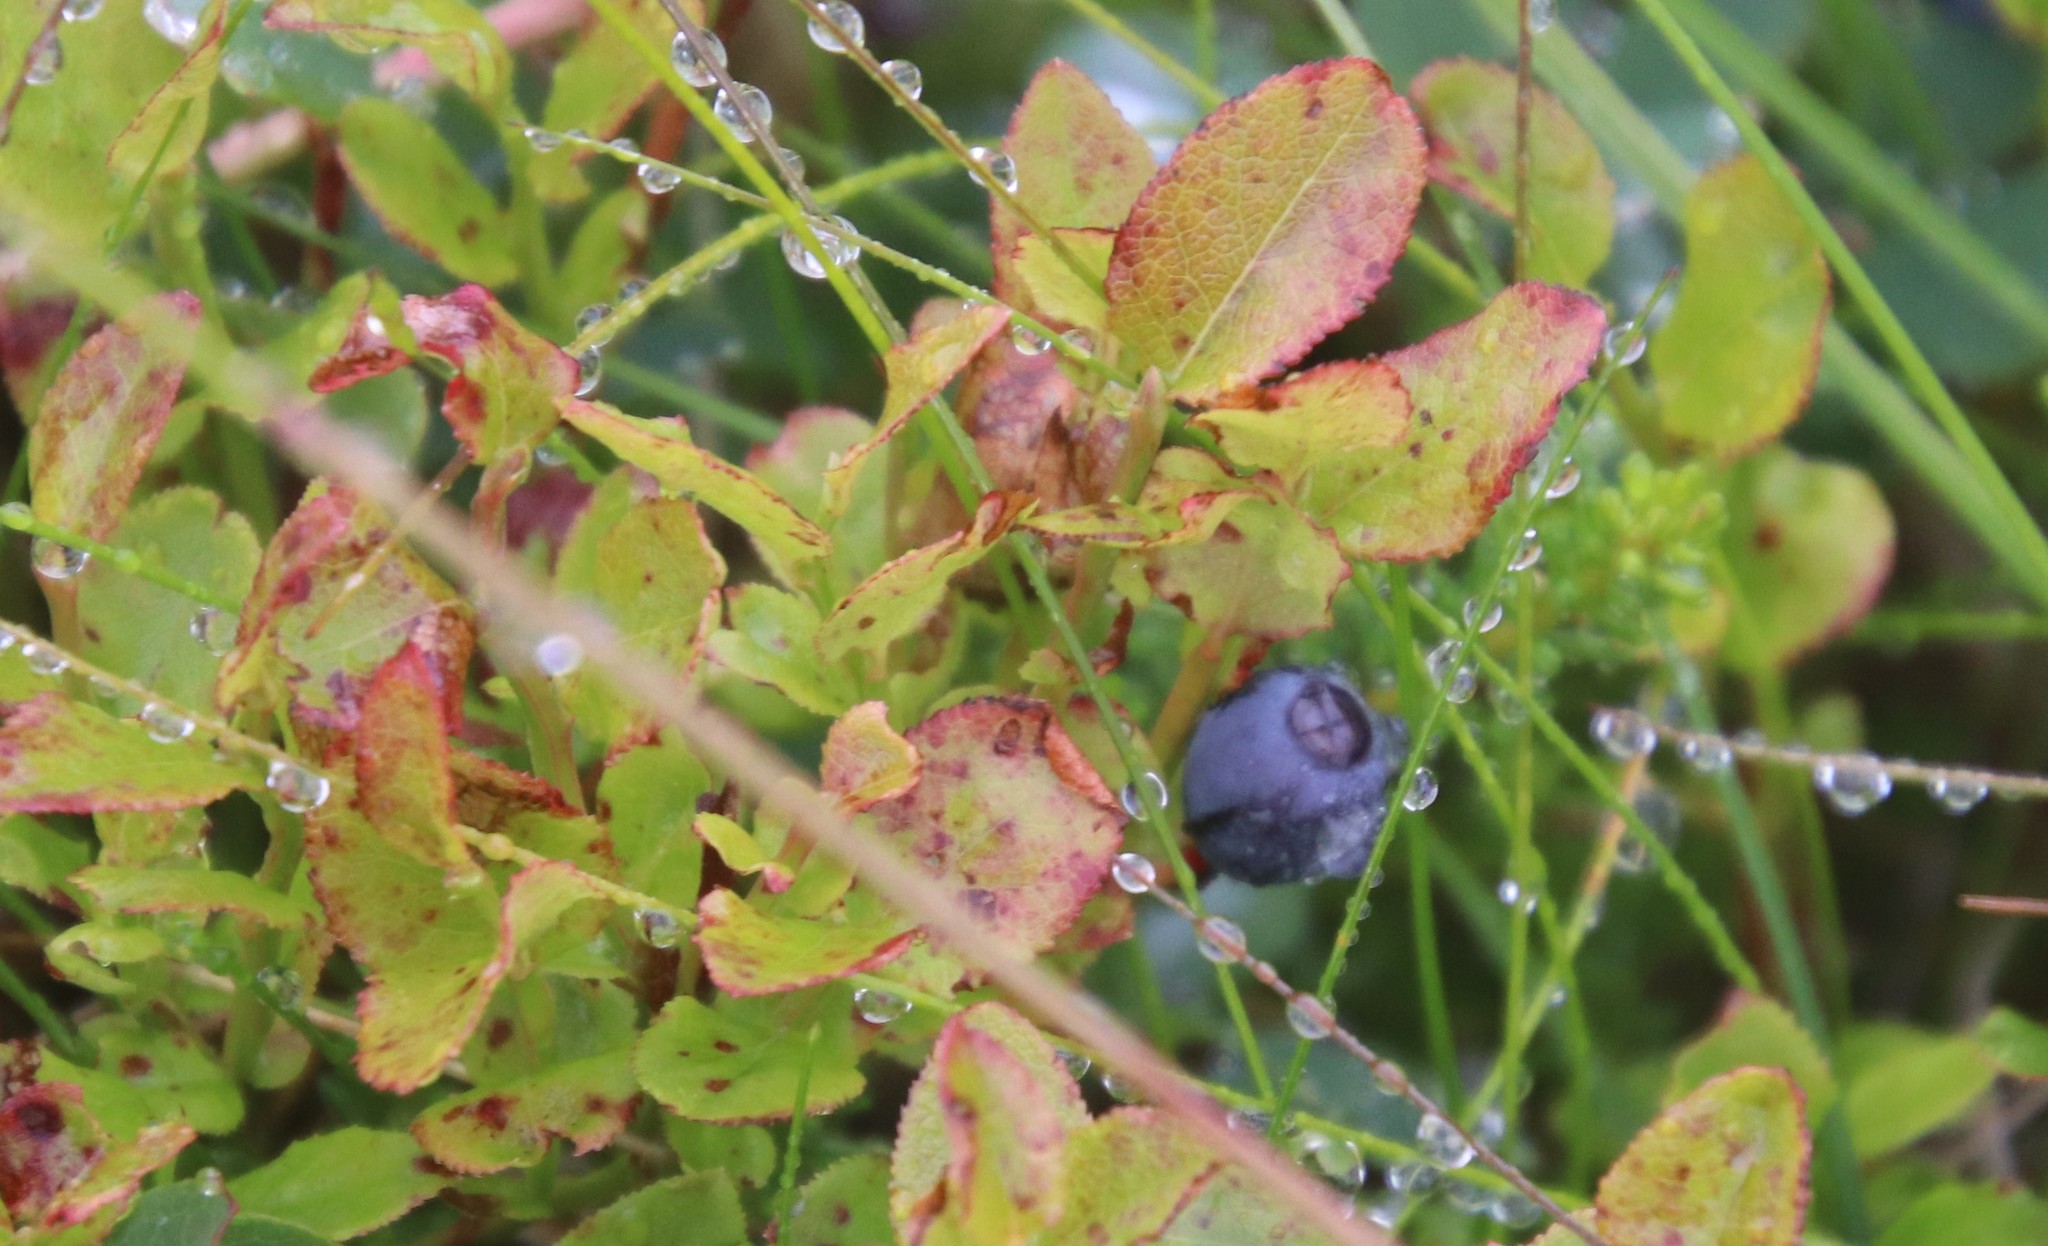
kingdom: Plantae
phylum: Tracheophyta
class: Magnoliopsida
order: Ericales
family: Ericaceae
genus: Vaccinium
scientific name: Vaccinium myrtillus
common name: Bilberry
